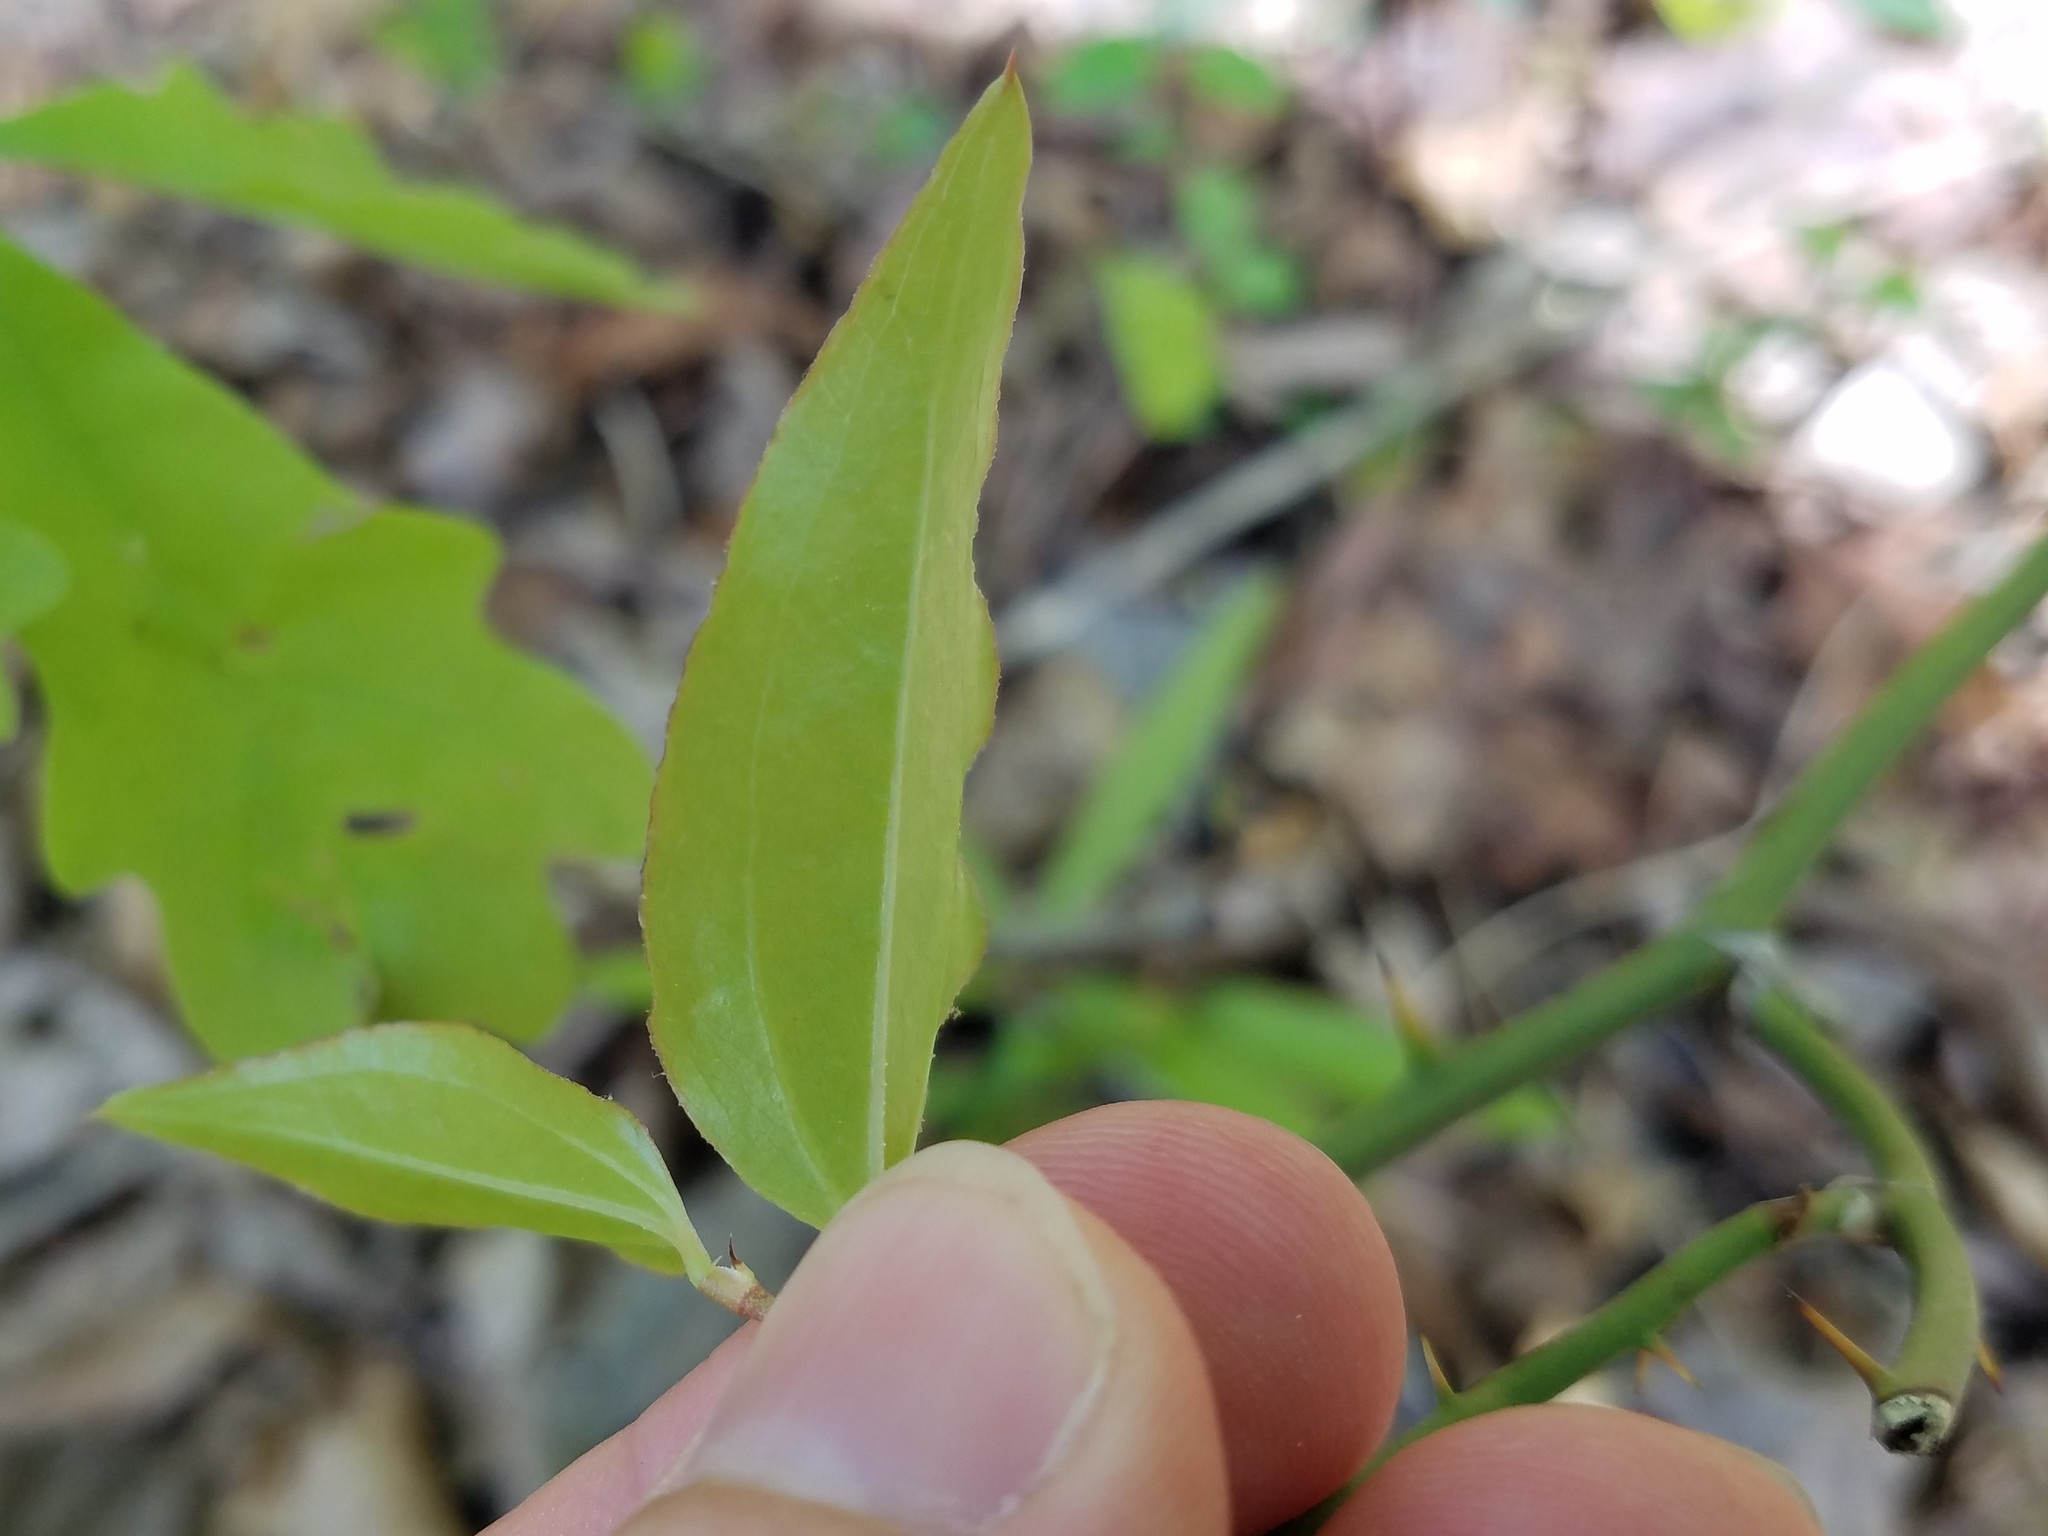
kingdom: Plantae
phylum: Tracheophyta
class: Liliopsida
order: Liliales
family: Smilacaceae
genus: Smilax
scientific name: Smilax rotundifolia
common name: Bullbriar
